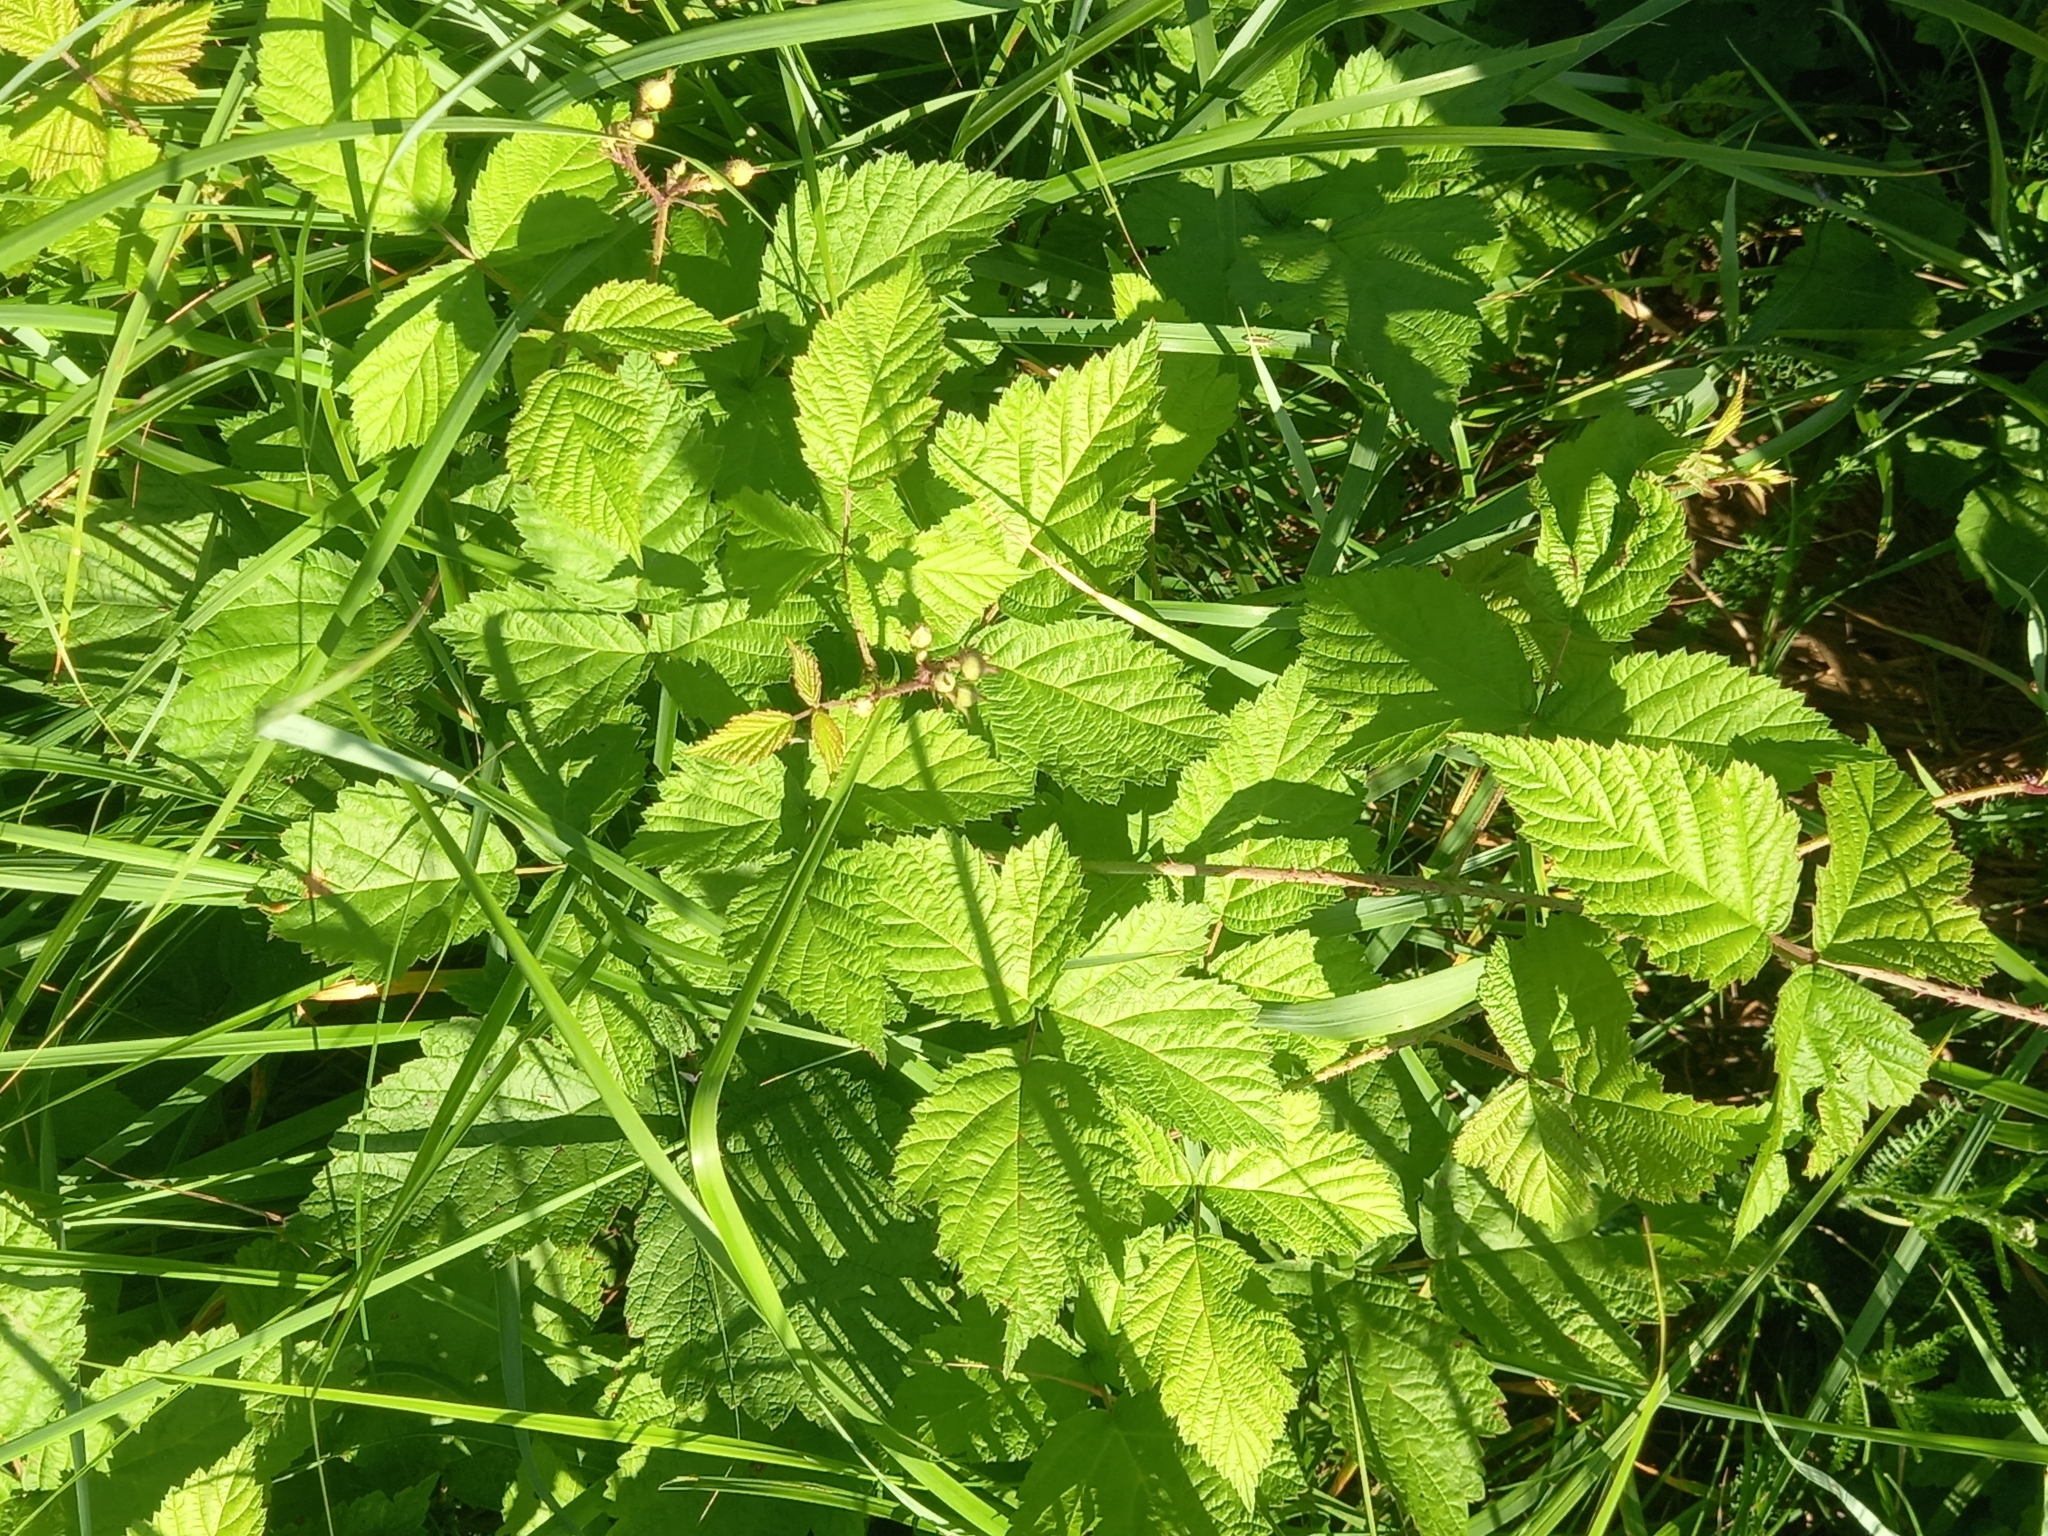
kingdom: Plantae
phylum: Tracheophyta
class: Magnoliopsida
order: Rosales
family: Rosaceae
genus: Rubus
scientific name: Rubus caesius
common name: Dewberry
